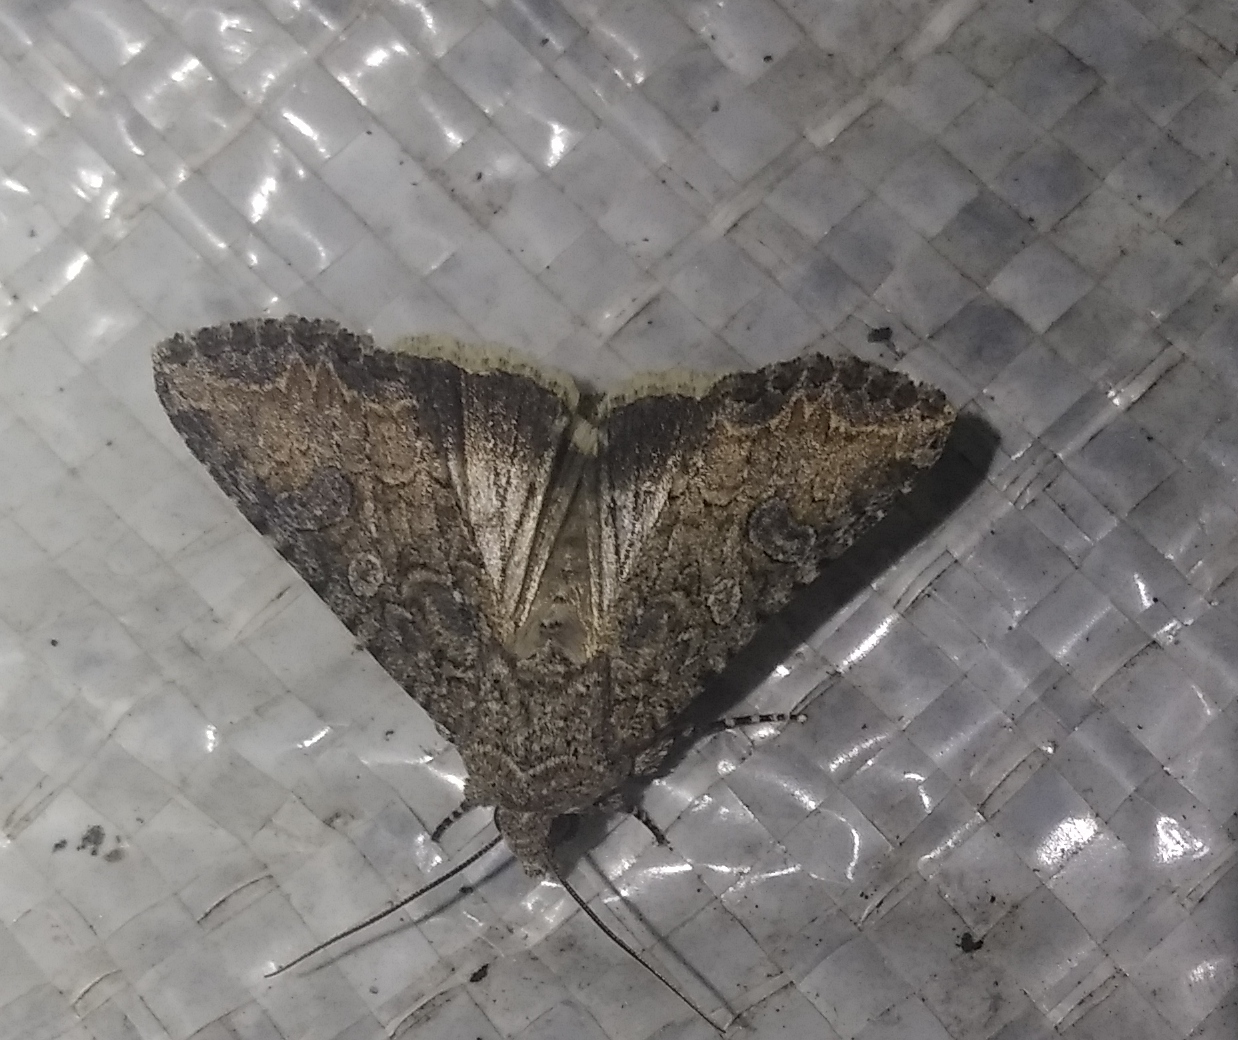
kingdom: Animalia
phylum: Arthropoda
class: Insecta
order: Lepidoptera
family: Noctuidae
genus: Anarta
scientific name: Anarta trifolii
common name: Clover cutworm moth
